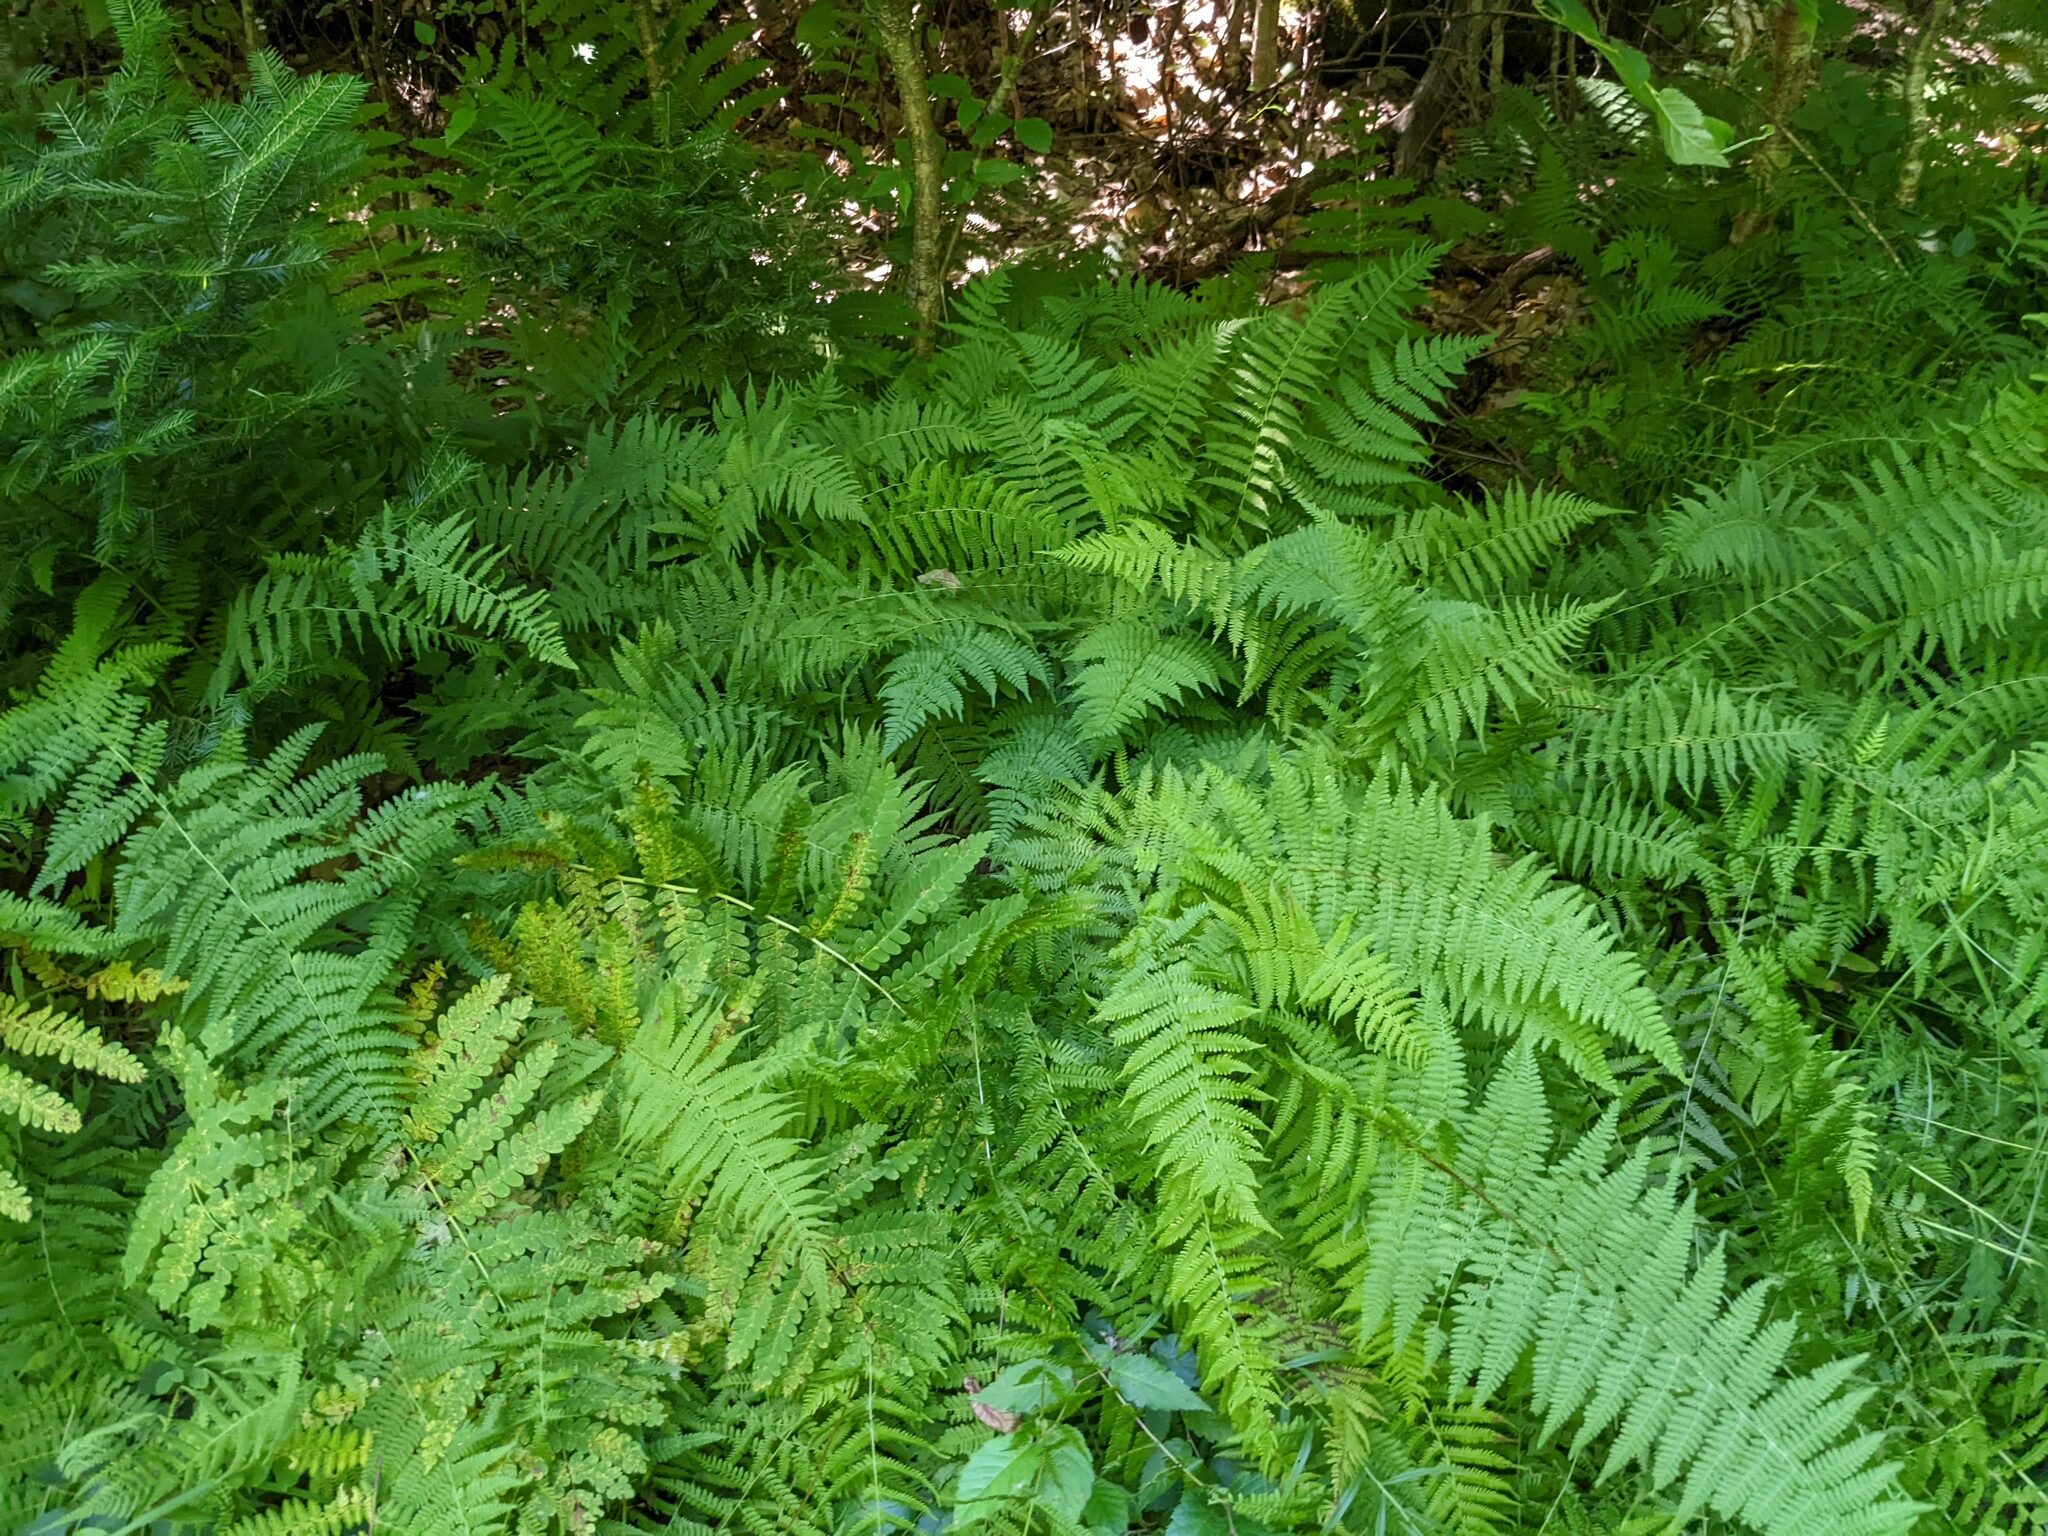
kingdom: Plantae
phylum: Tracheophyta
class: Polypodiopsida
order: Polypodiales
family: Dennstaedtiaceae
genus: Sitobolium
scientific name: Sitobolium punctilobum
